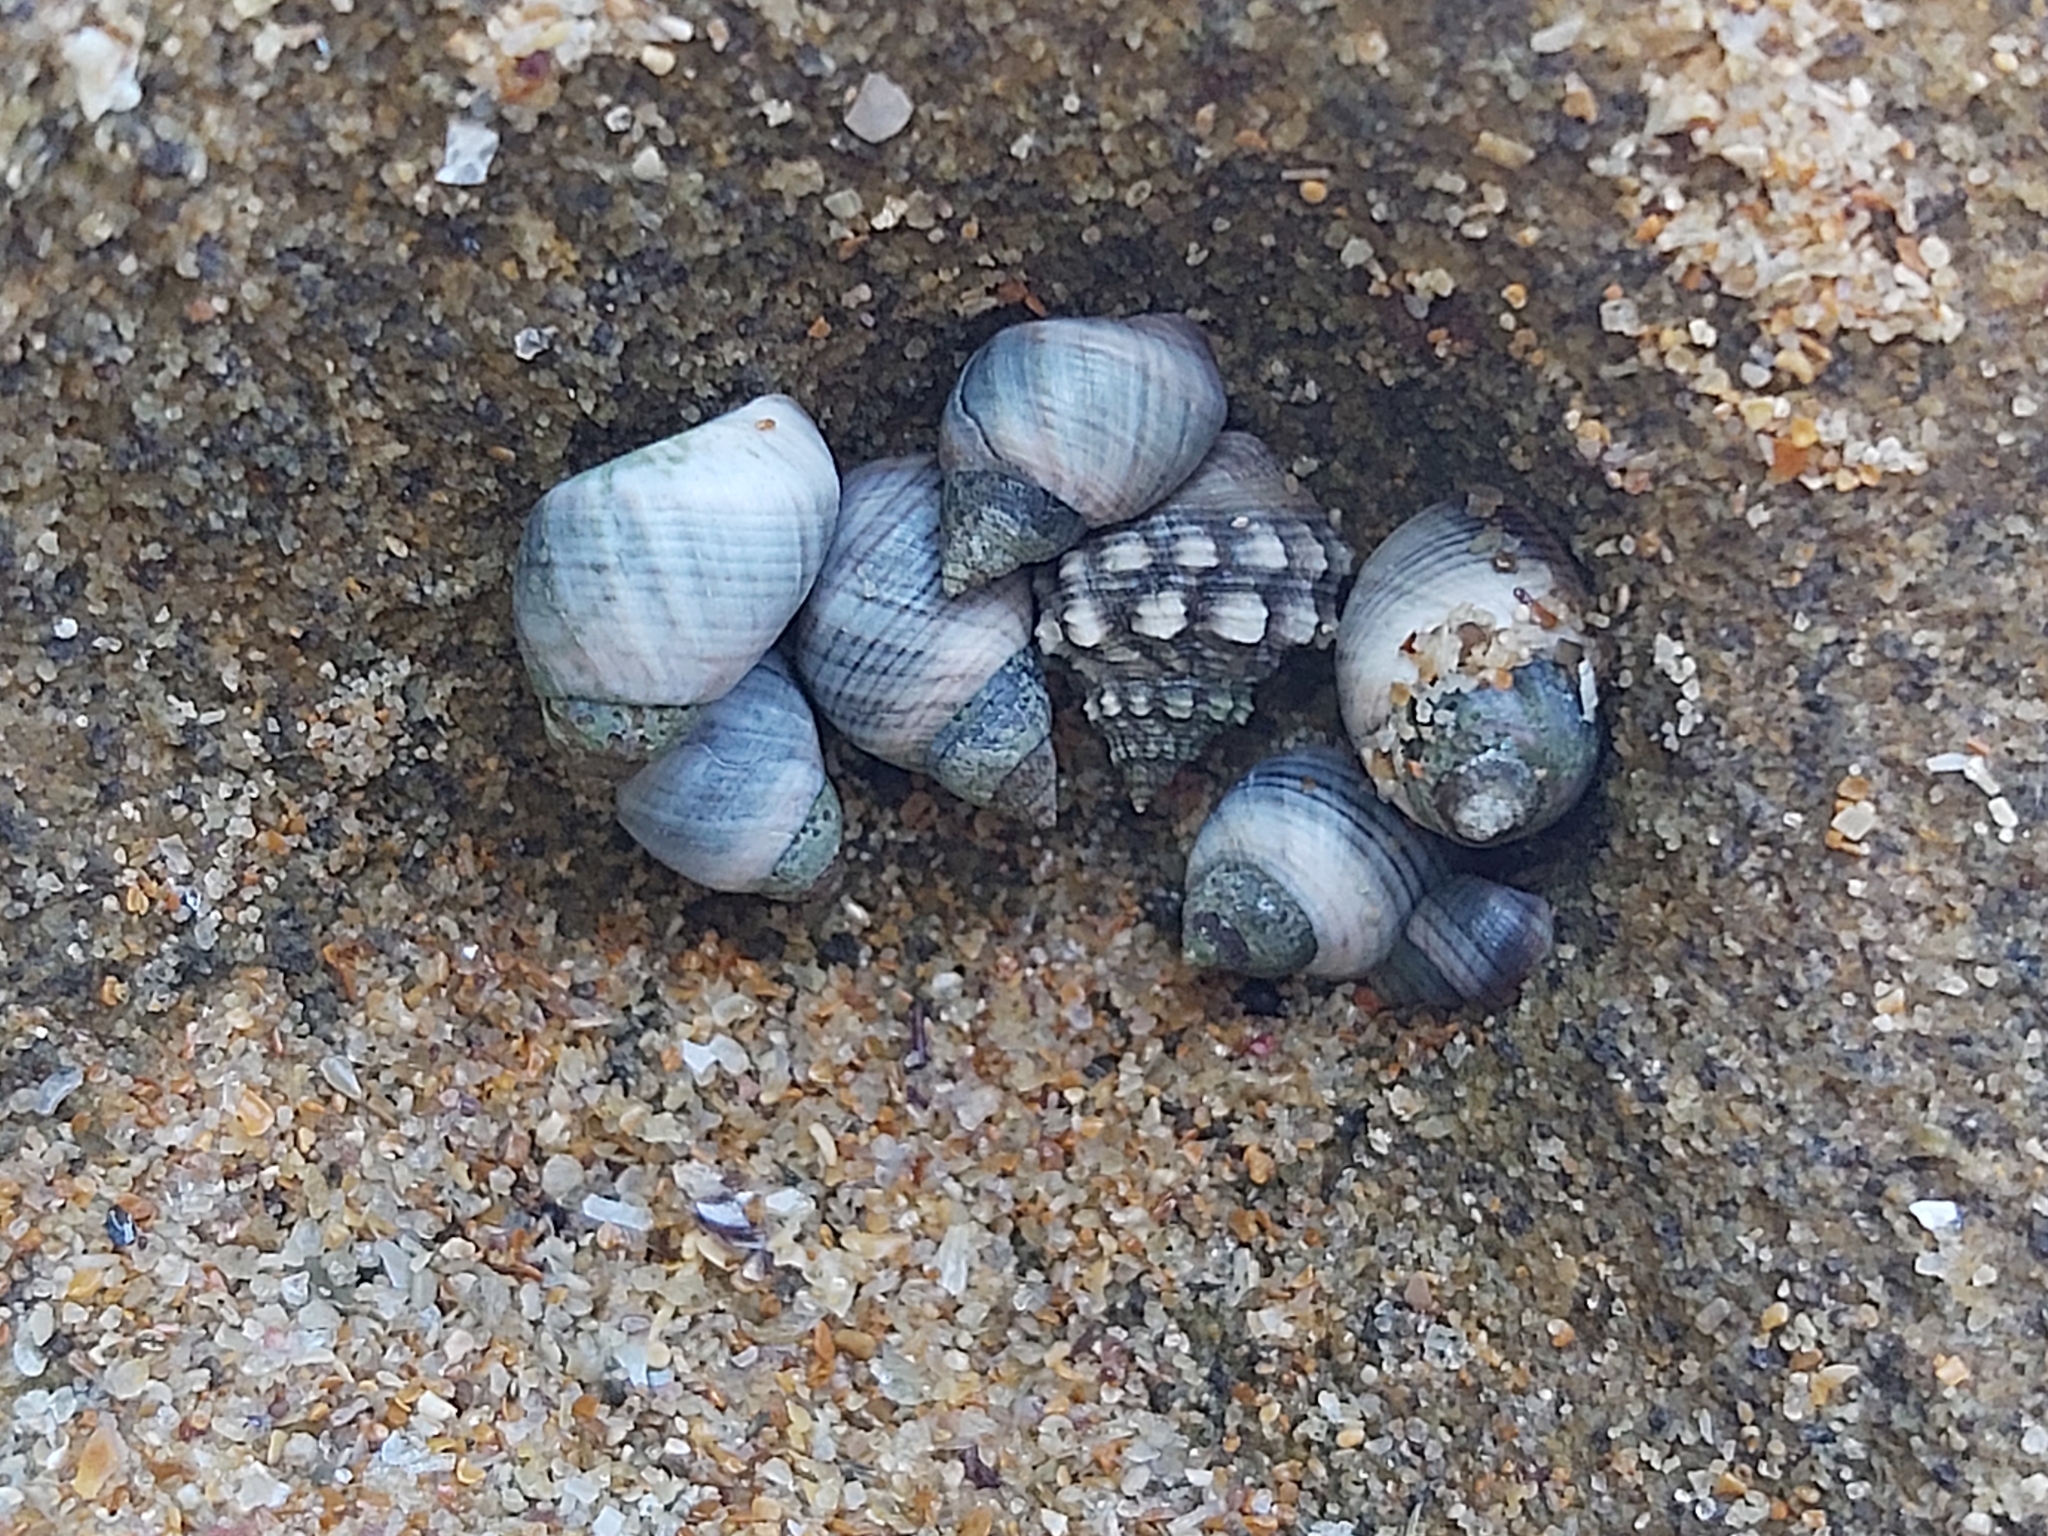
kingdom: Animalia
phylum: Mollusca
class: Gastropoda
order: Littorinimorpha
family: Littorinidae
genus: Austrolittorina
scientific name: Austrolittorina unifasciata
